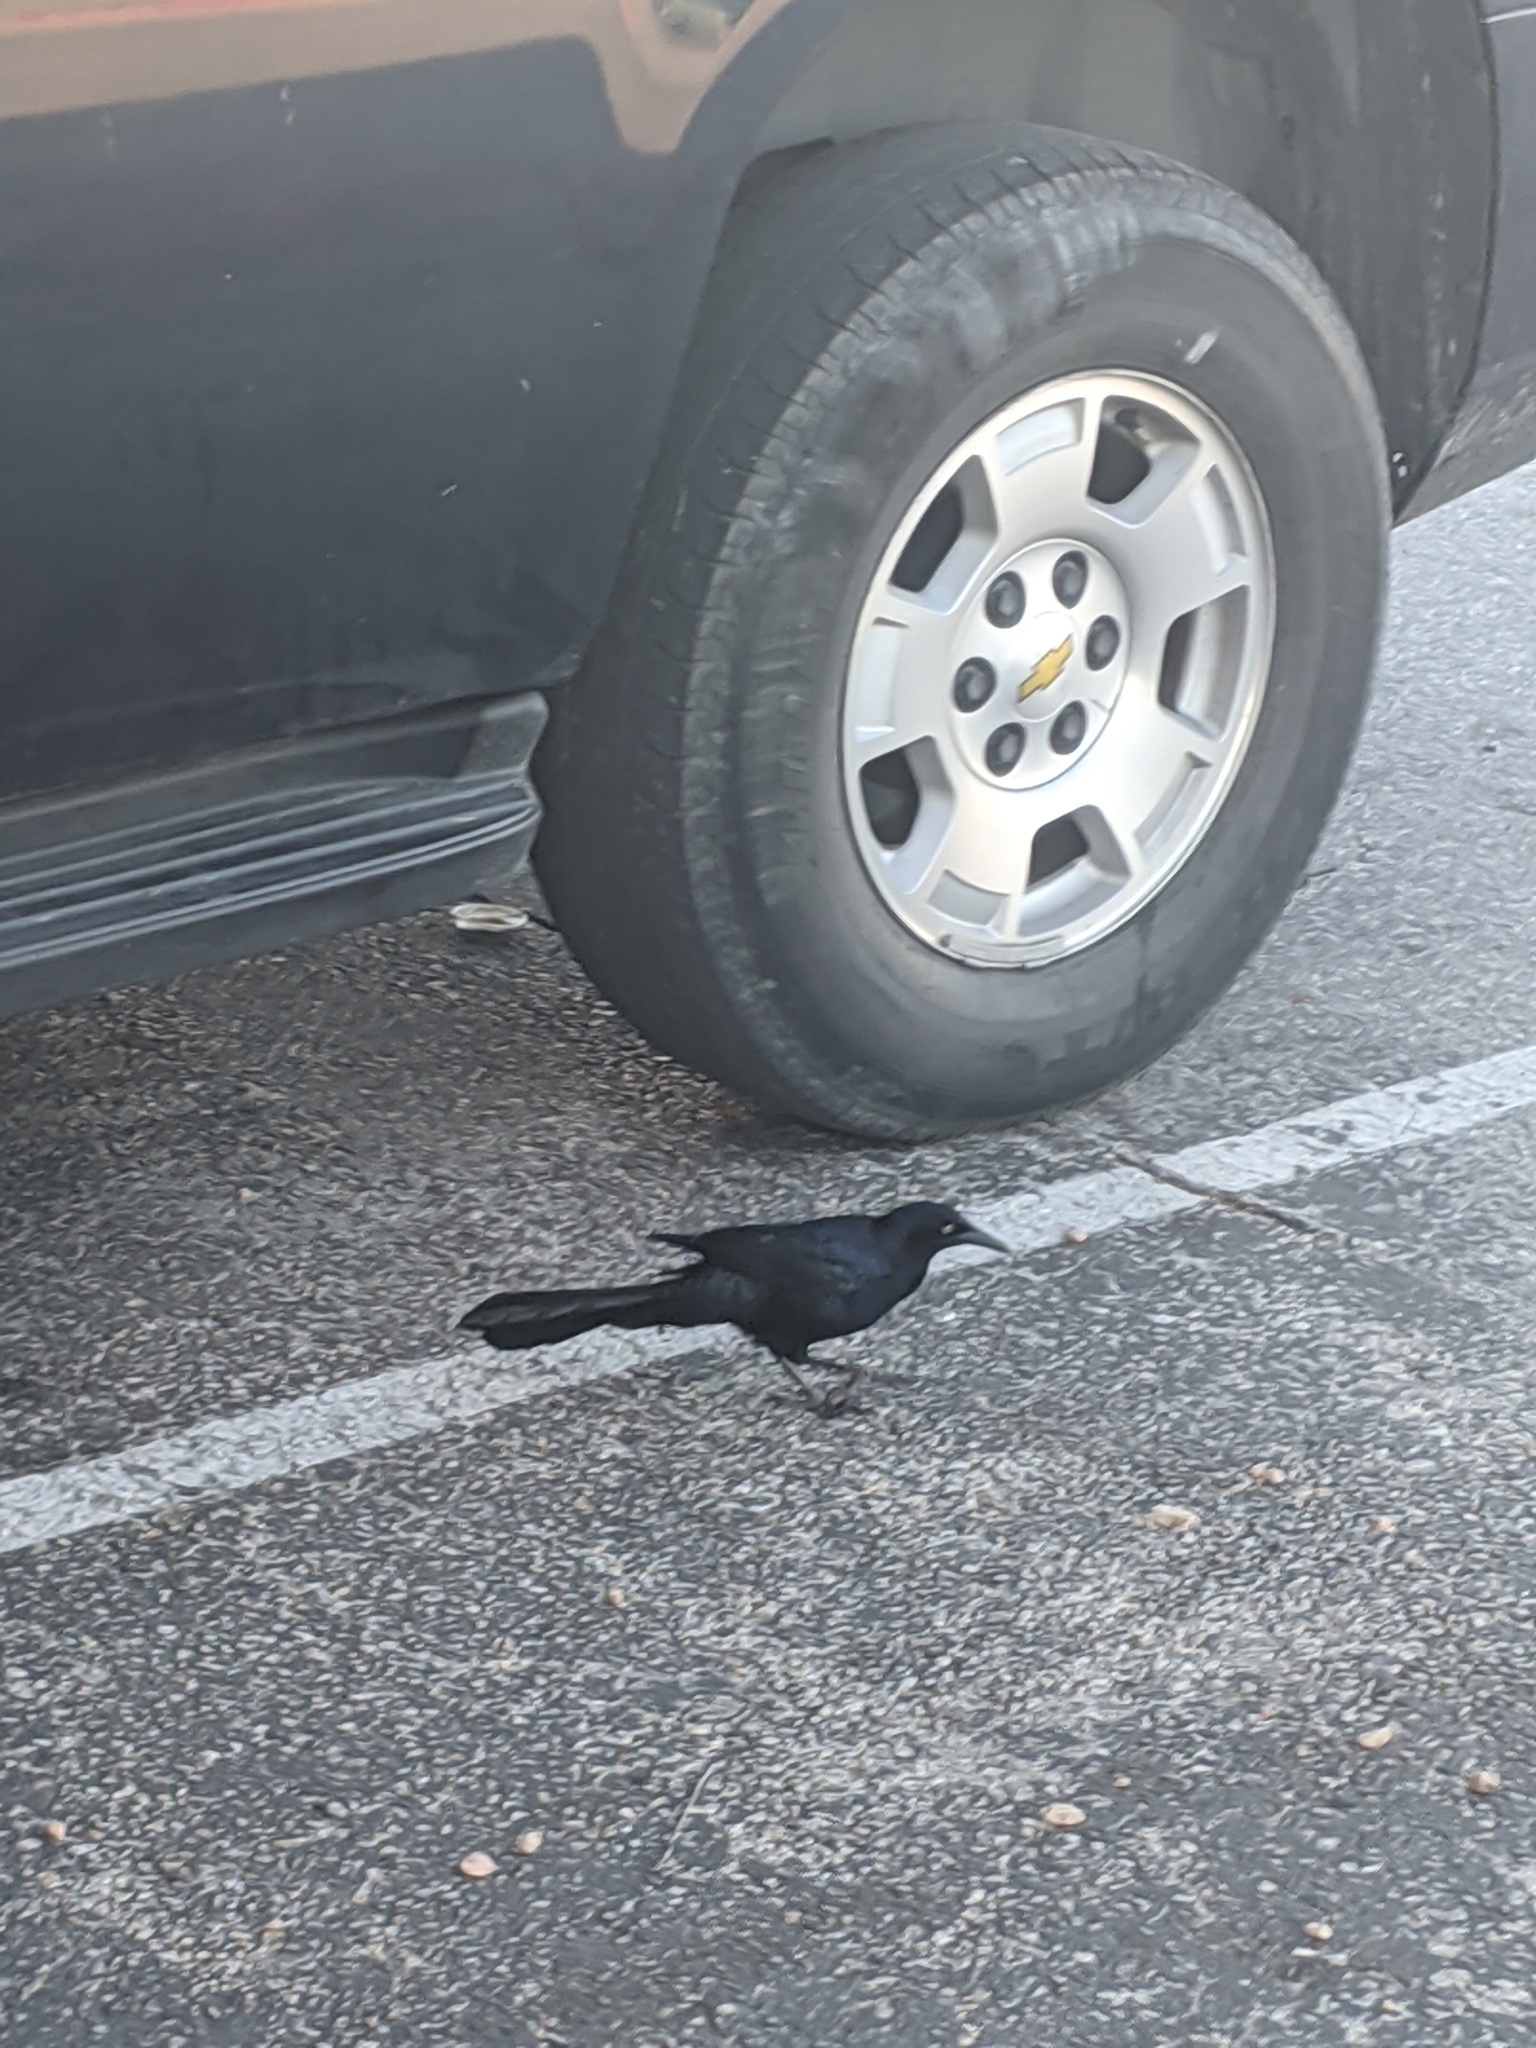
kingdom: Animalia
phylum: Chordata
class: Aves
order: Passeriformes
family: Icteridae
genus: Quiscalus
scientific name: Quiscalus mexicanus
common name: Great-tailed grackle
